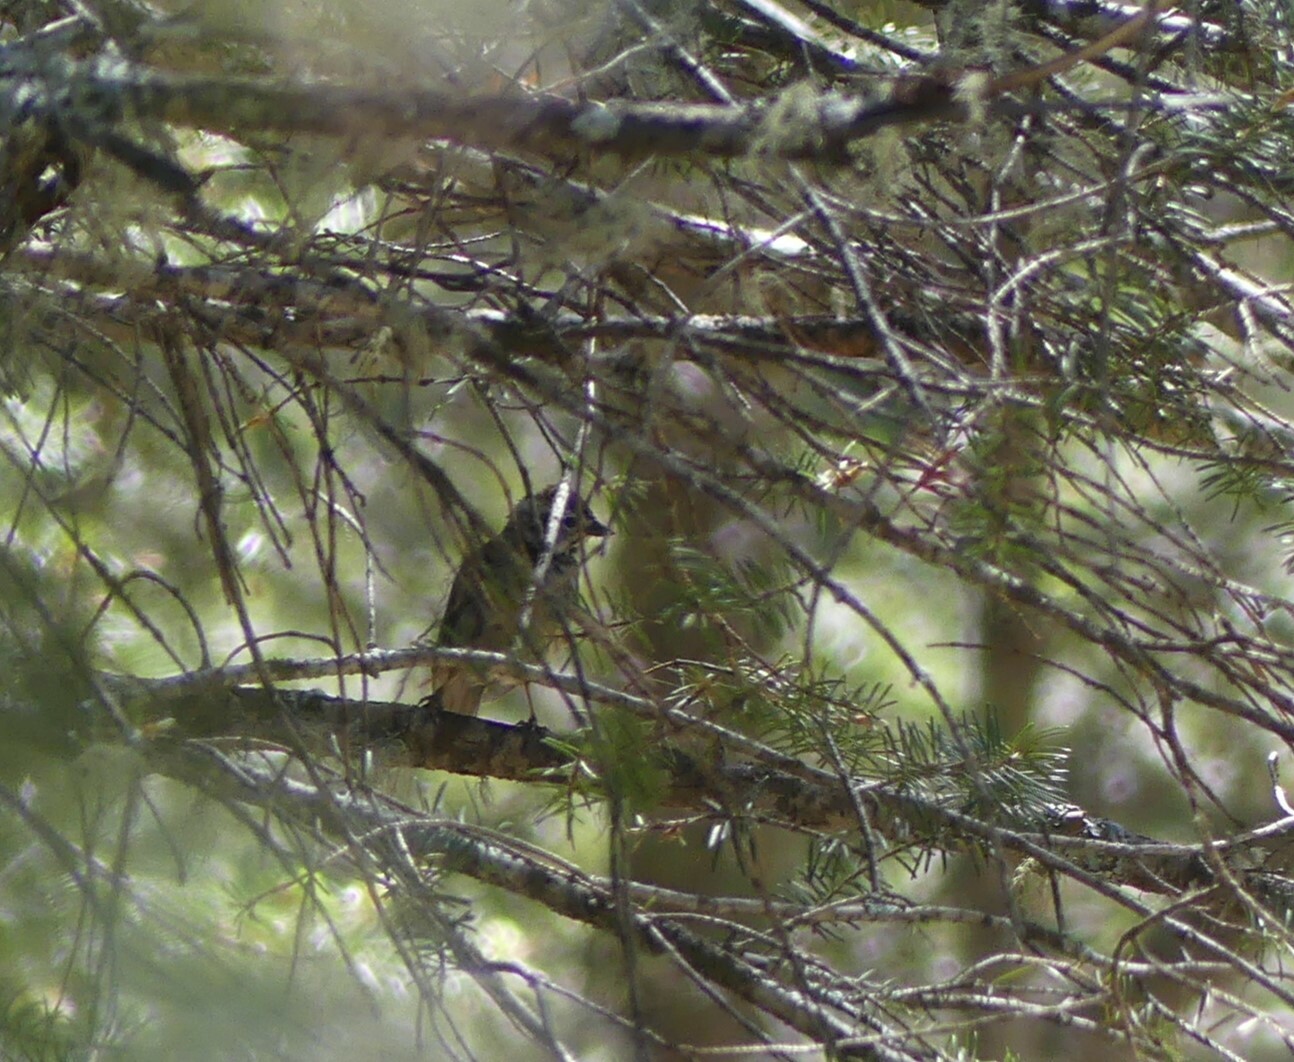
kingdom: Animalia
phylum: Chordata
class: Aves
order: Passeriformes
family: Passerellidae
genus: Spizella
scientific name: Spizella passerina
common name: Chipping sparrow
